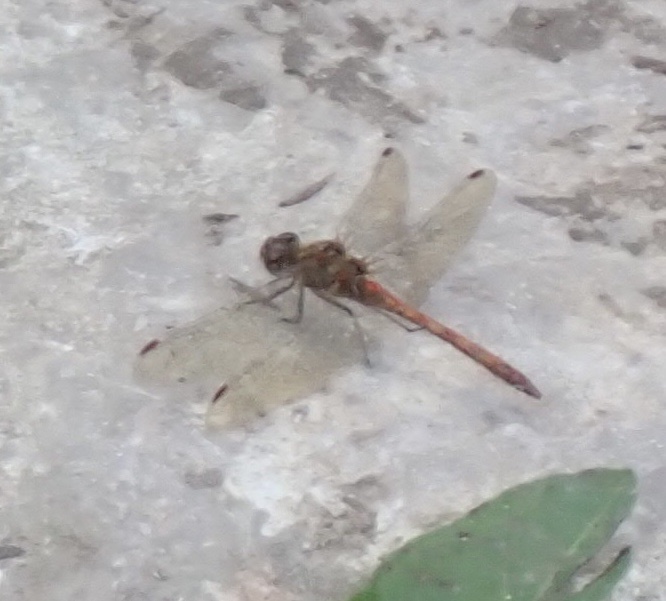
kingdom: Animalia
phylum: Arthropoda
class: Insecta
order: Odonata
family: Libellulidae
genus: Sympetrum
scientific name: Sympetrum striolatum
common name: Common darter
